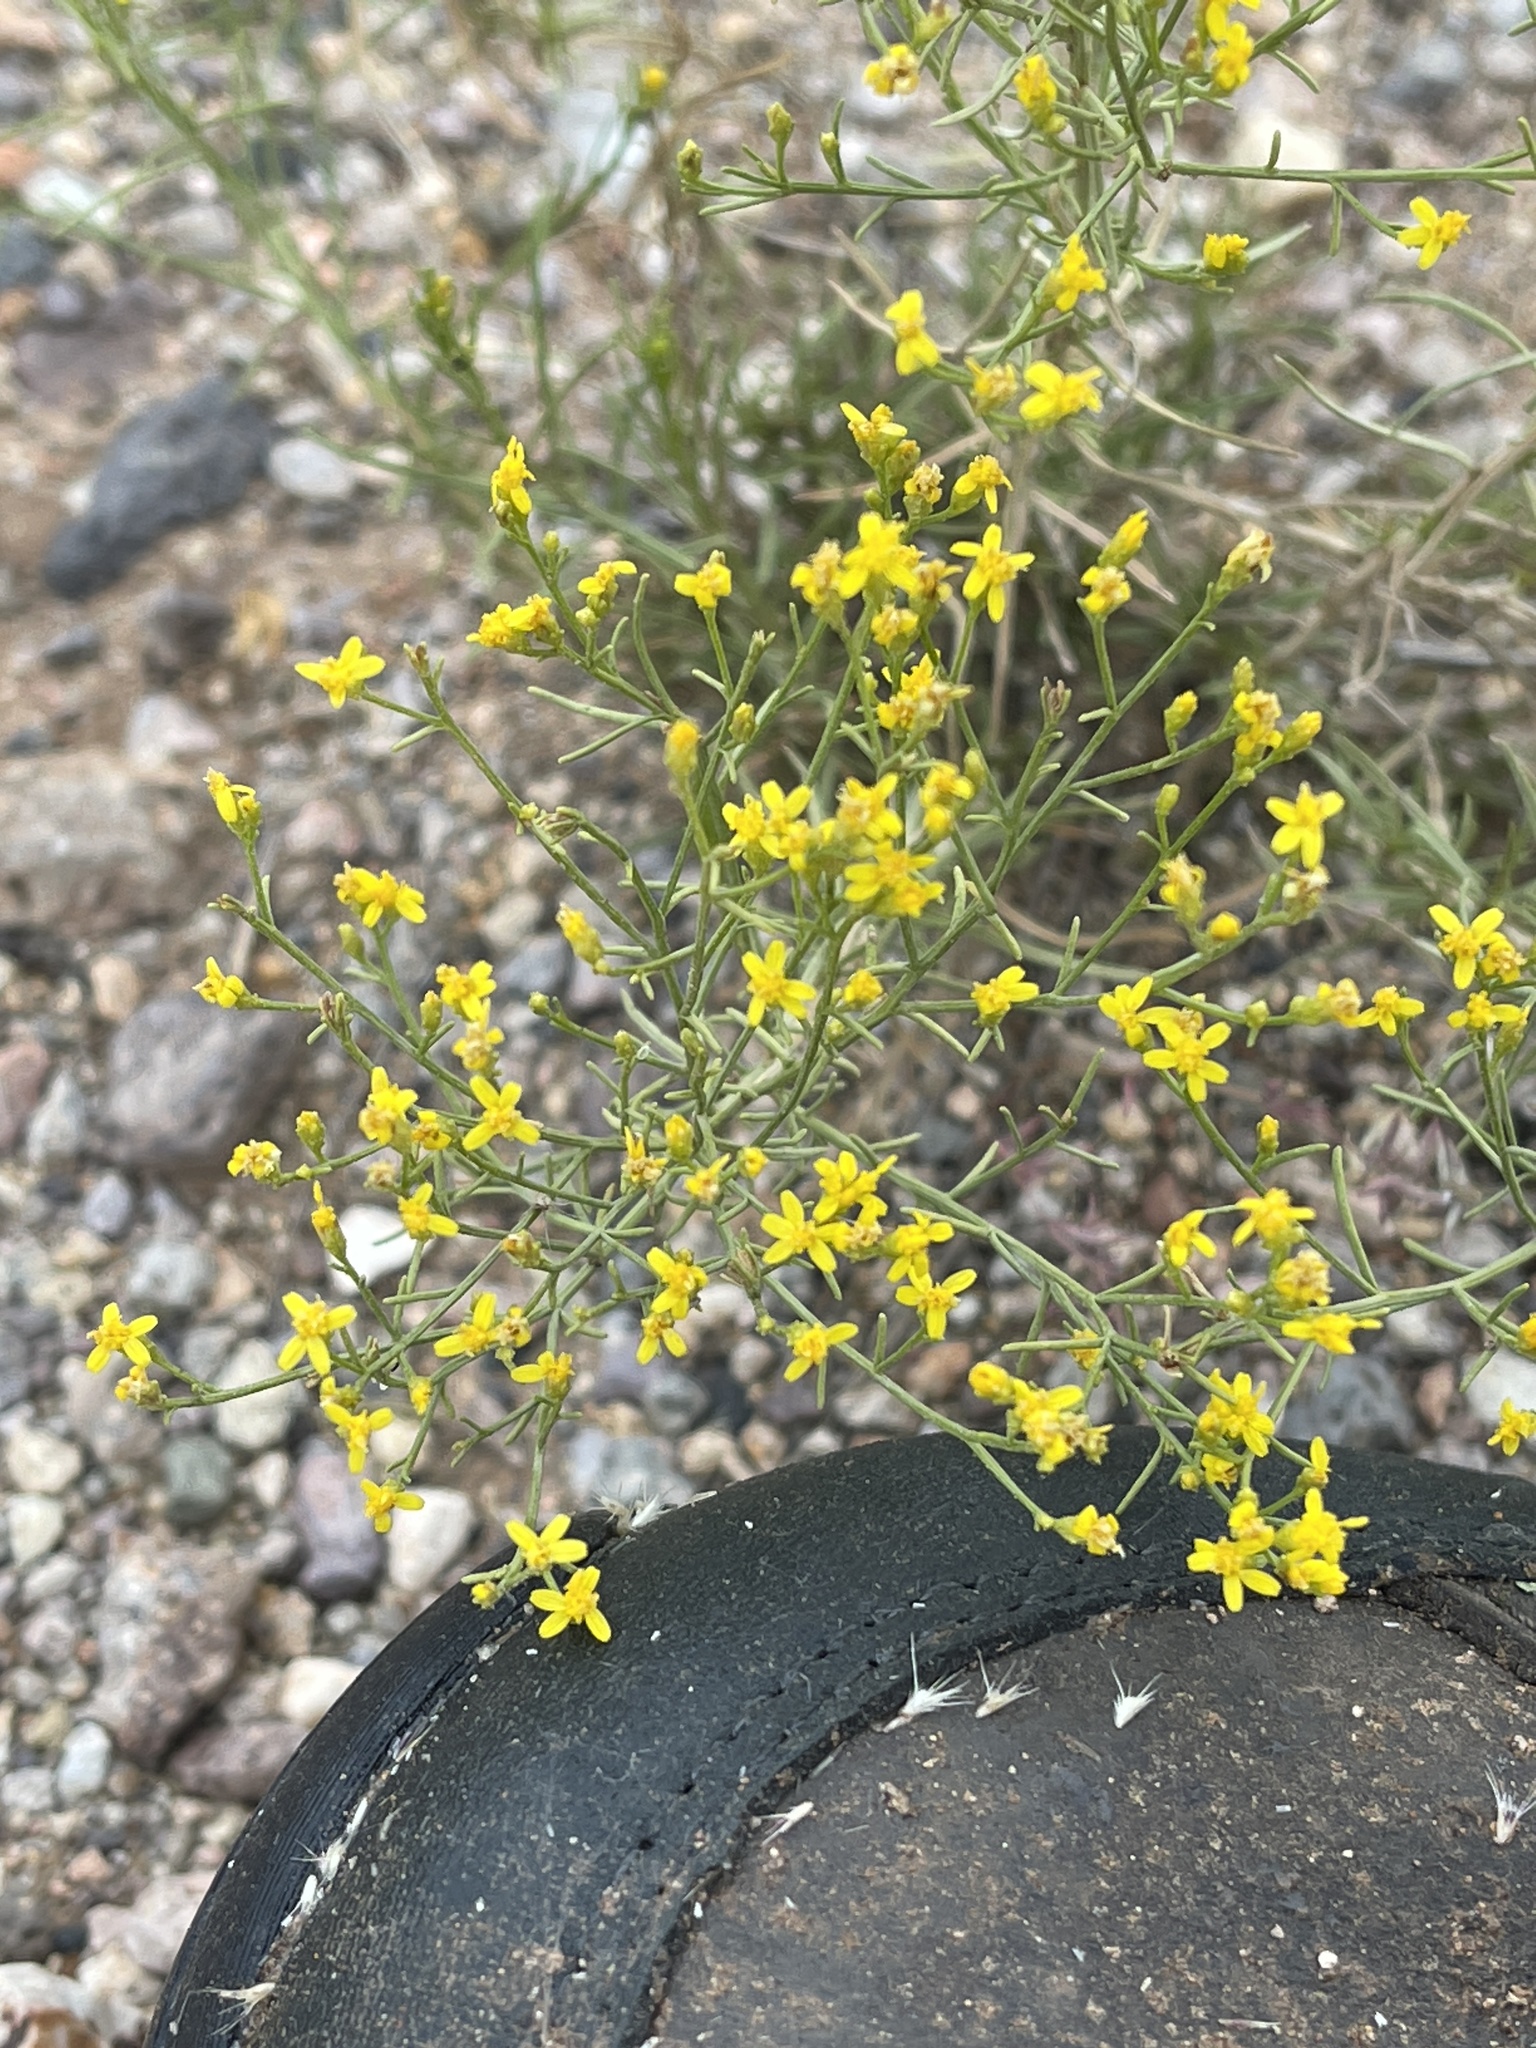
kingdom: Plantae
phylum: Tracheophyta
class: Magnoliopsida
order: Asterales
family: Asteraceae
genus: Gutierrezia
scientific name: Gutierrezia sarothrae
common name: Broom snakeweed
